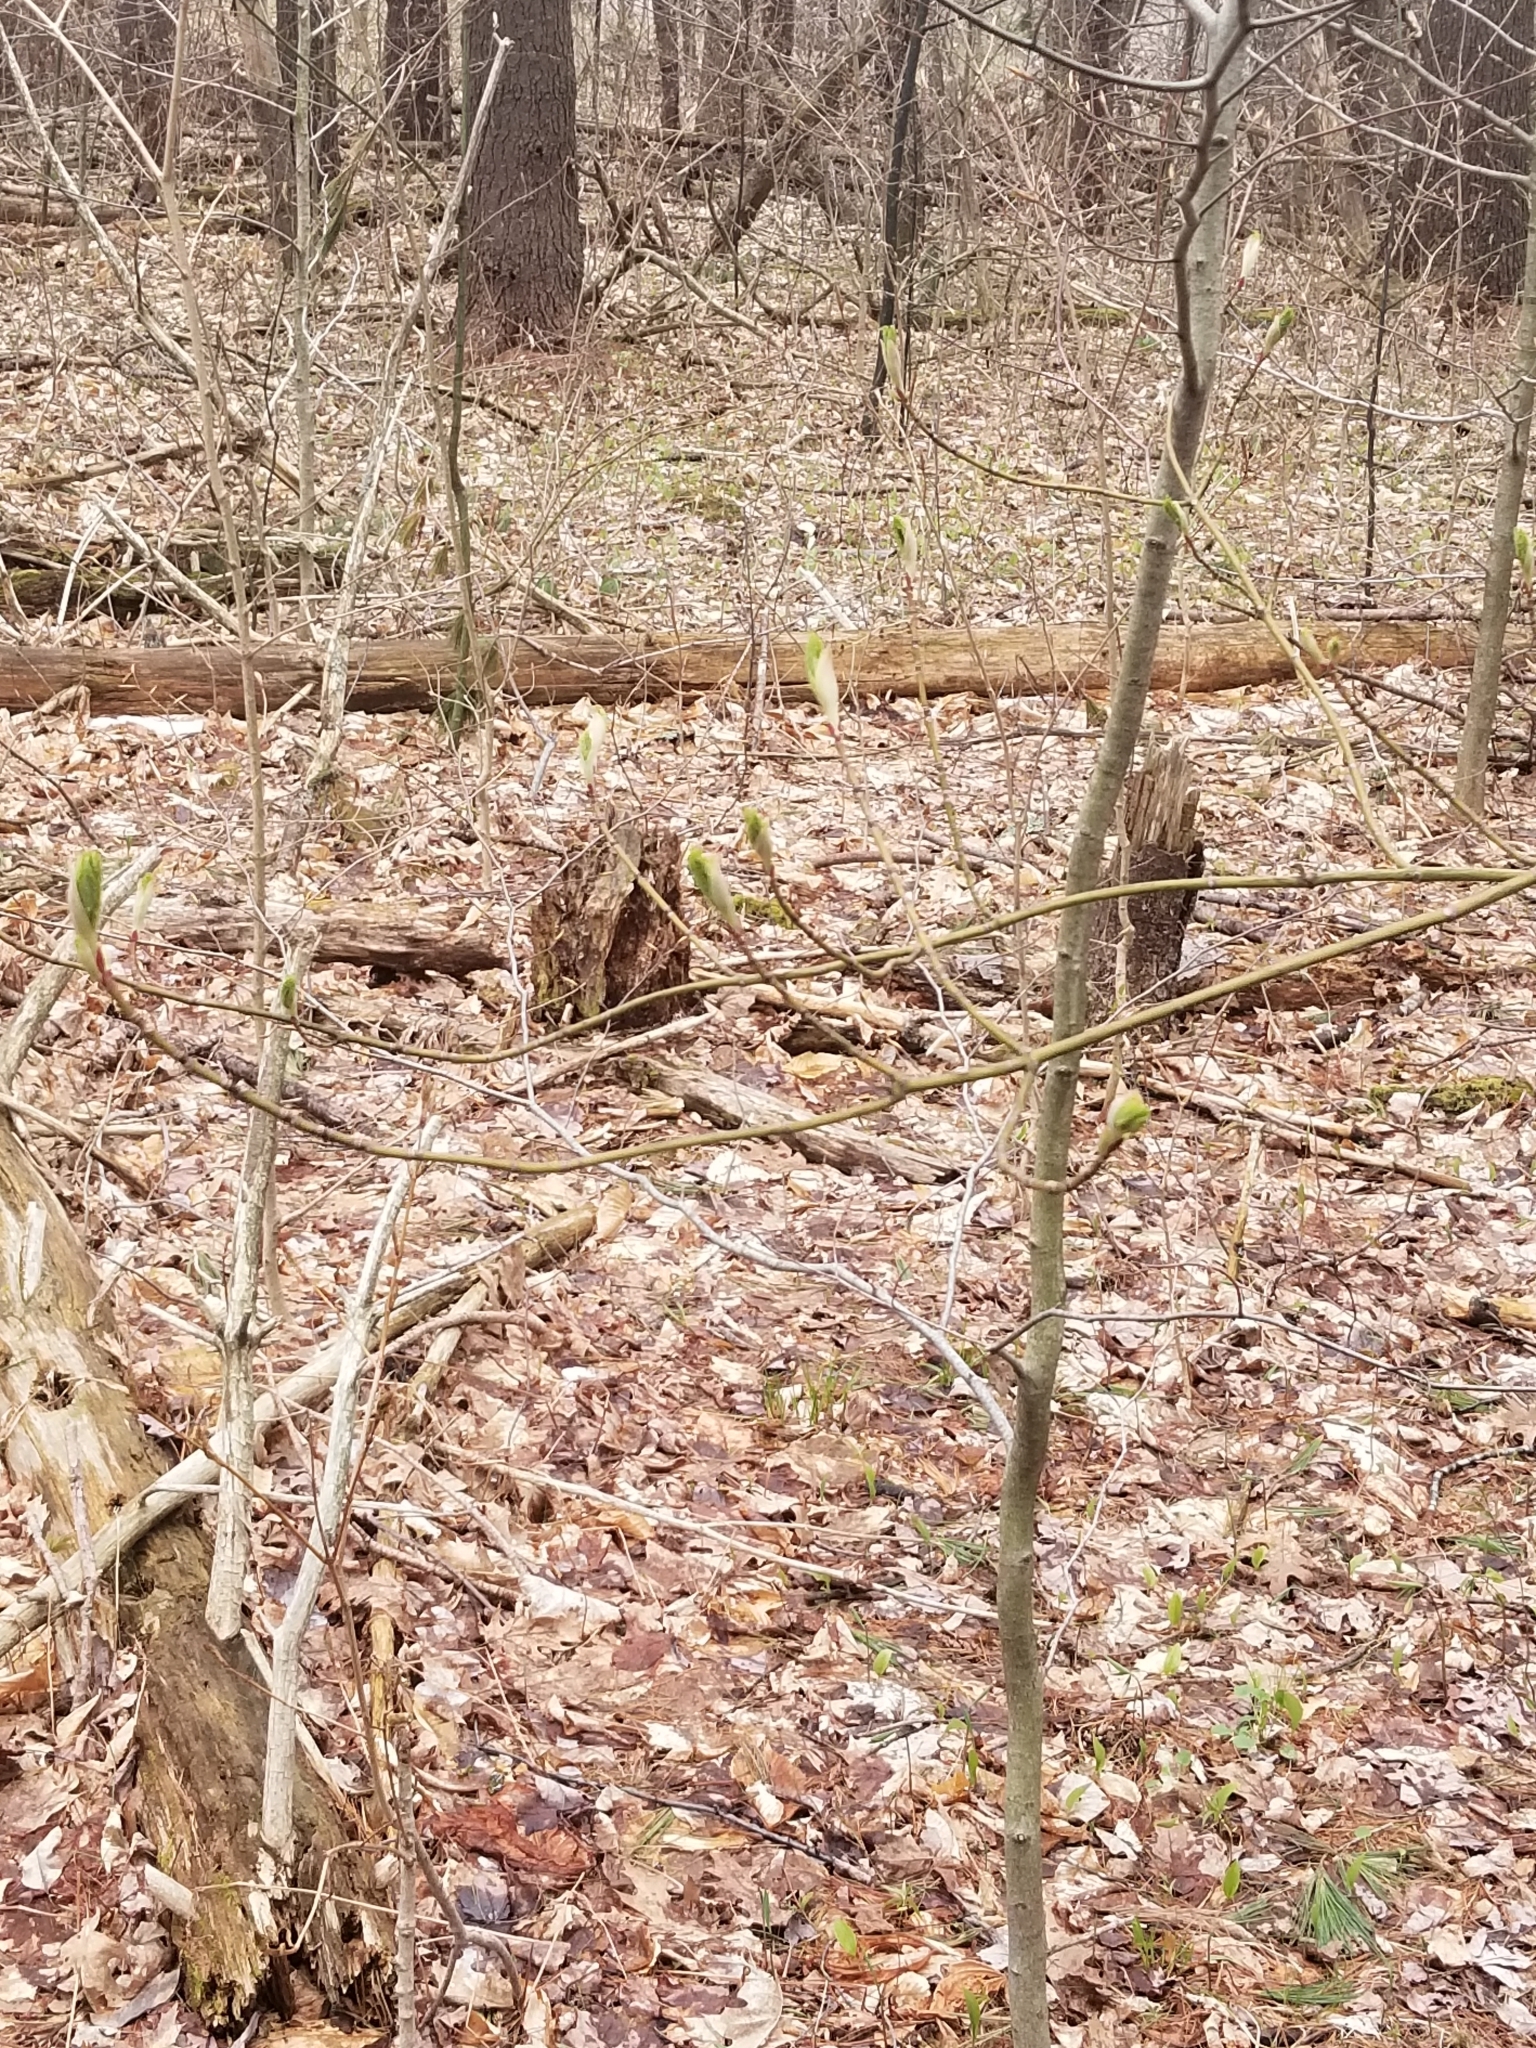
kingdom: Plantae
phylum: Tracheophyta
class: Magnoliopsida
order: Sapindales
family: Sapindaceae
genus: Acer
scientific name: Acer pensylvanicum
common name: Moosewood
